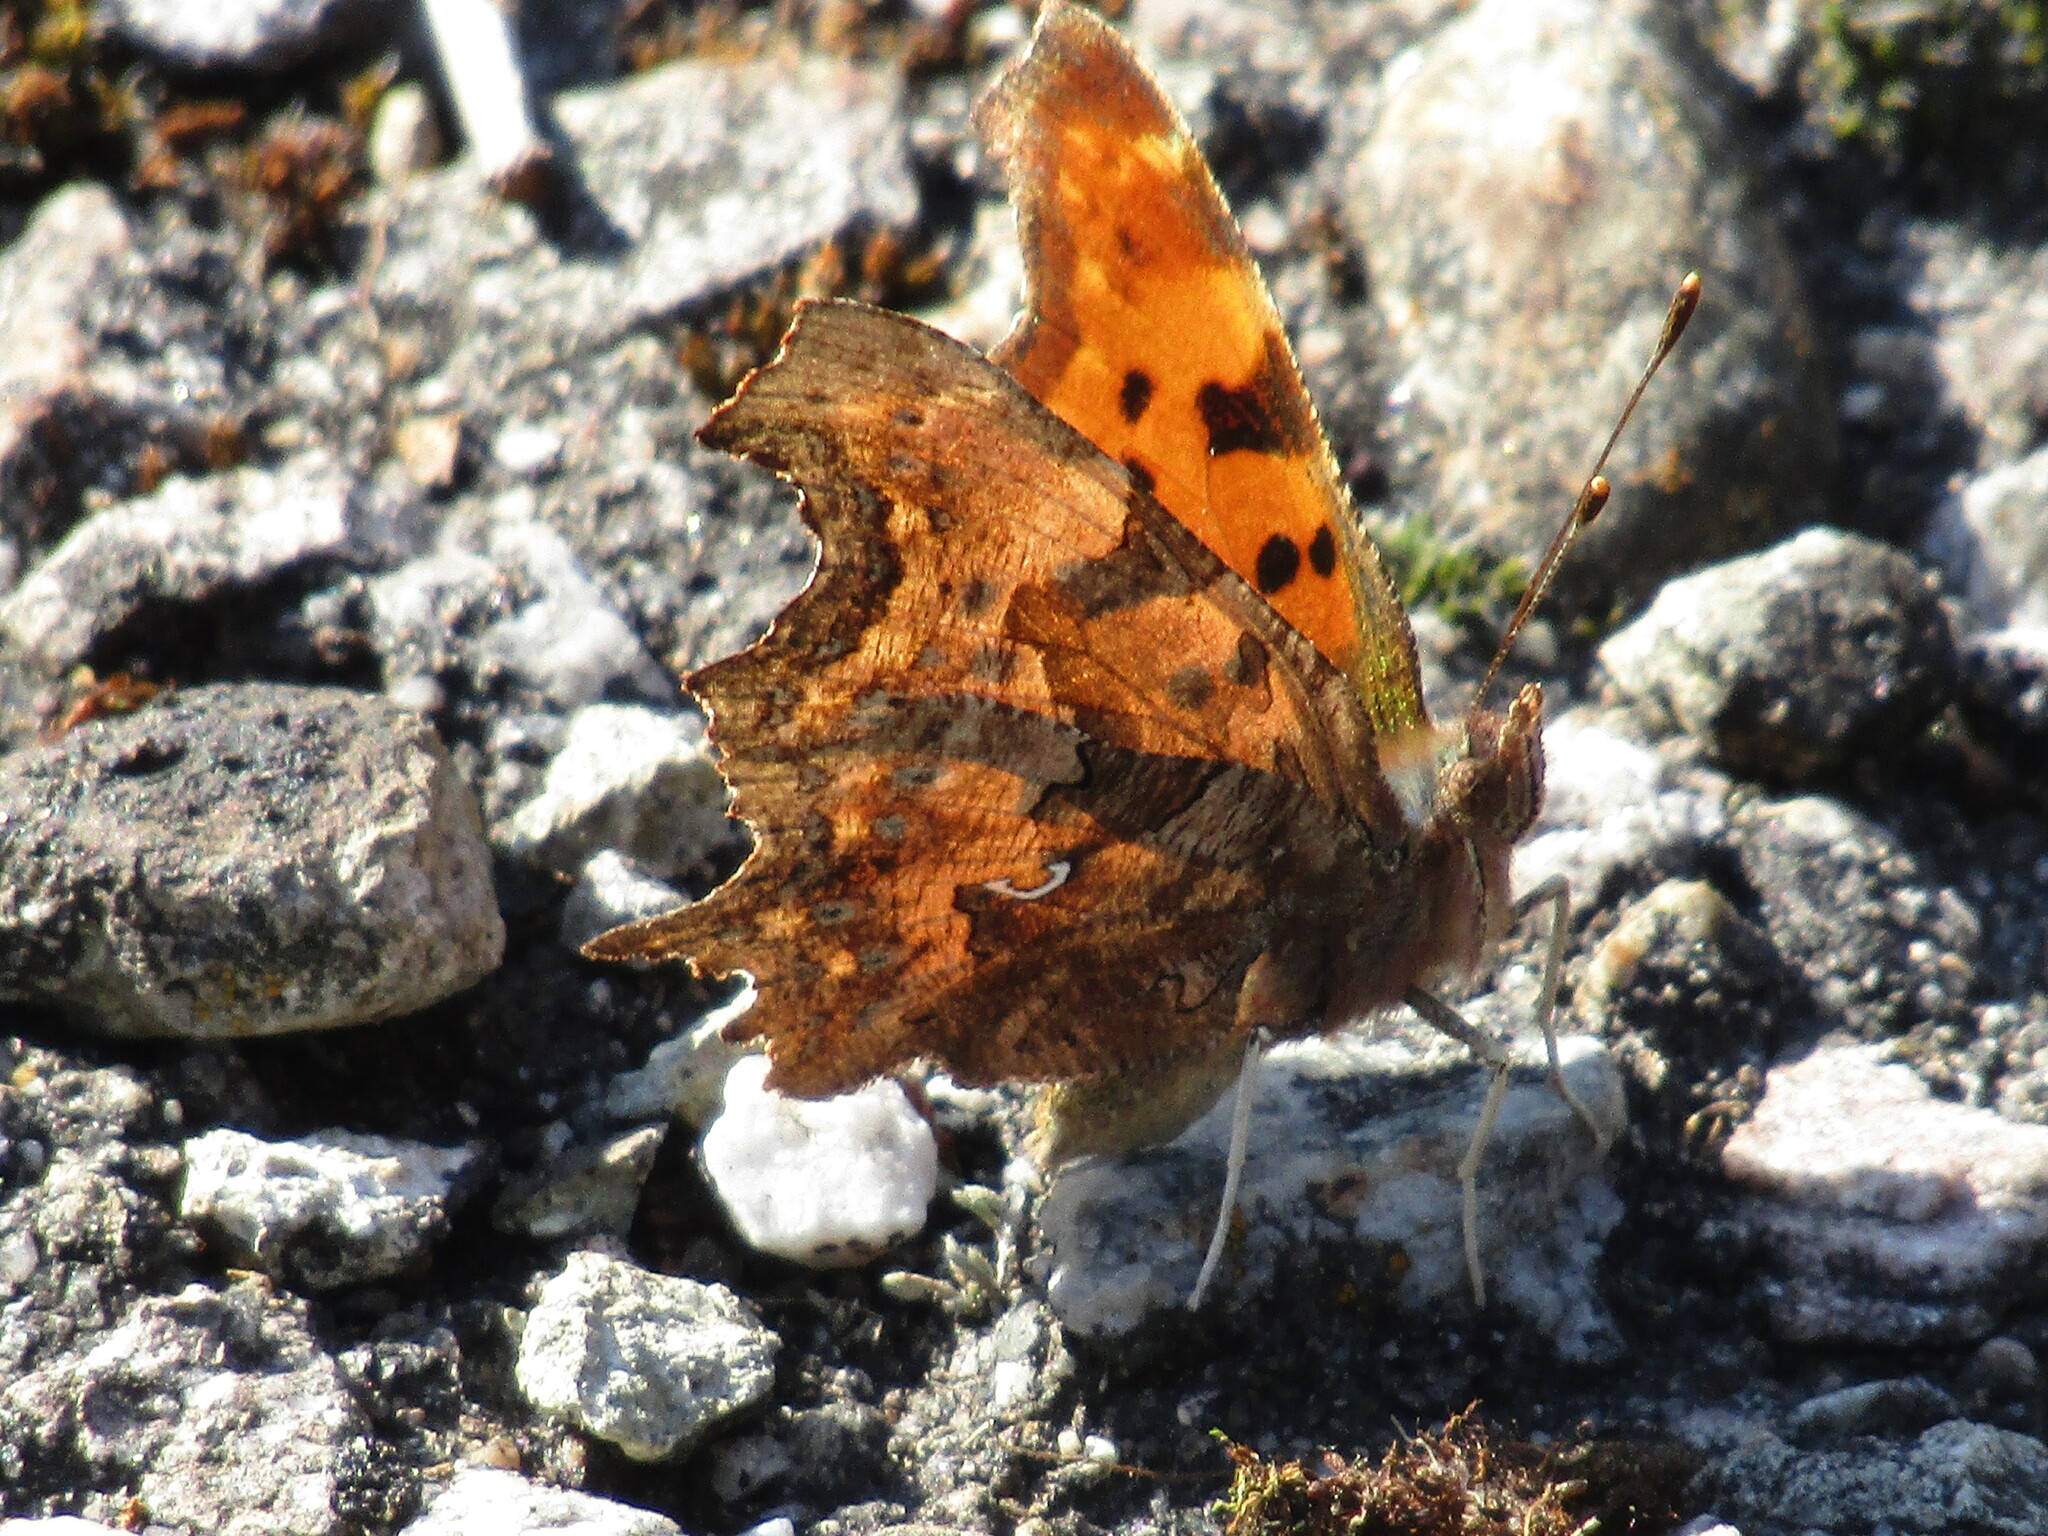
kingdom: Animalia
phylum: Arthropoda
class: Insecta
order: Lepidoptera
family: Nymphalidae
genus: Polygonia
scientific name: Polygonia c-album
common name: Comma
